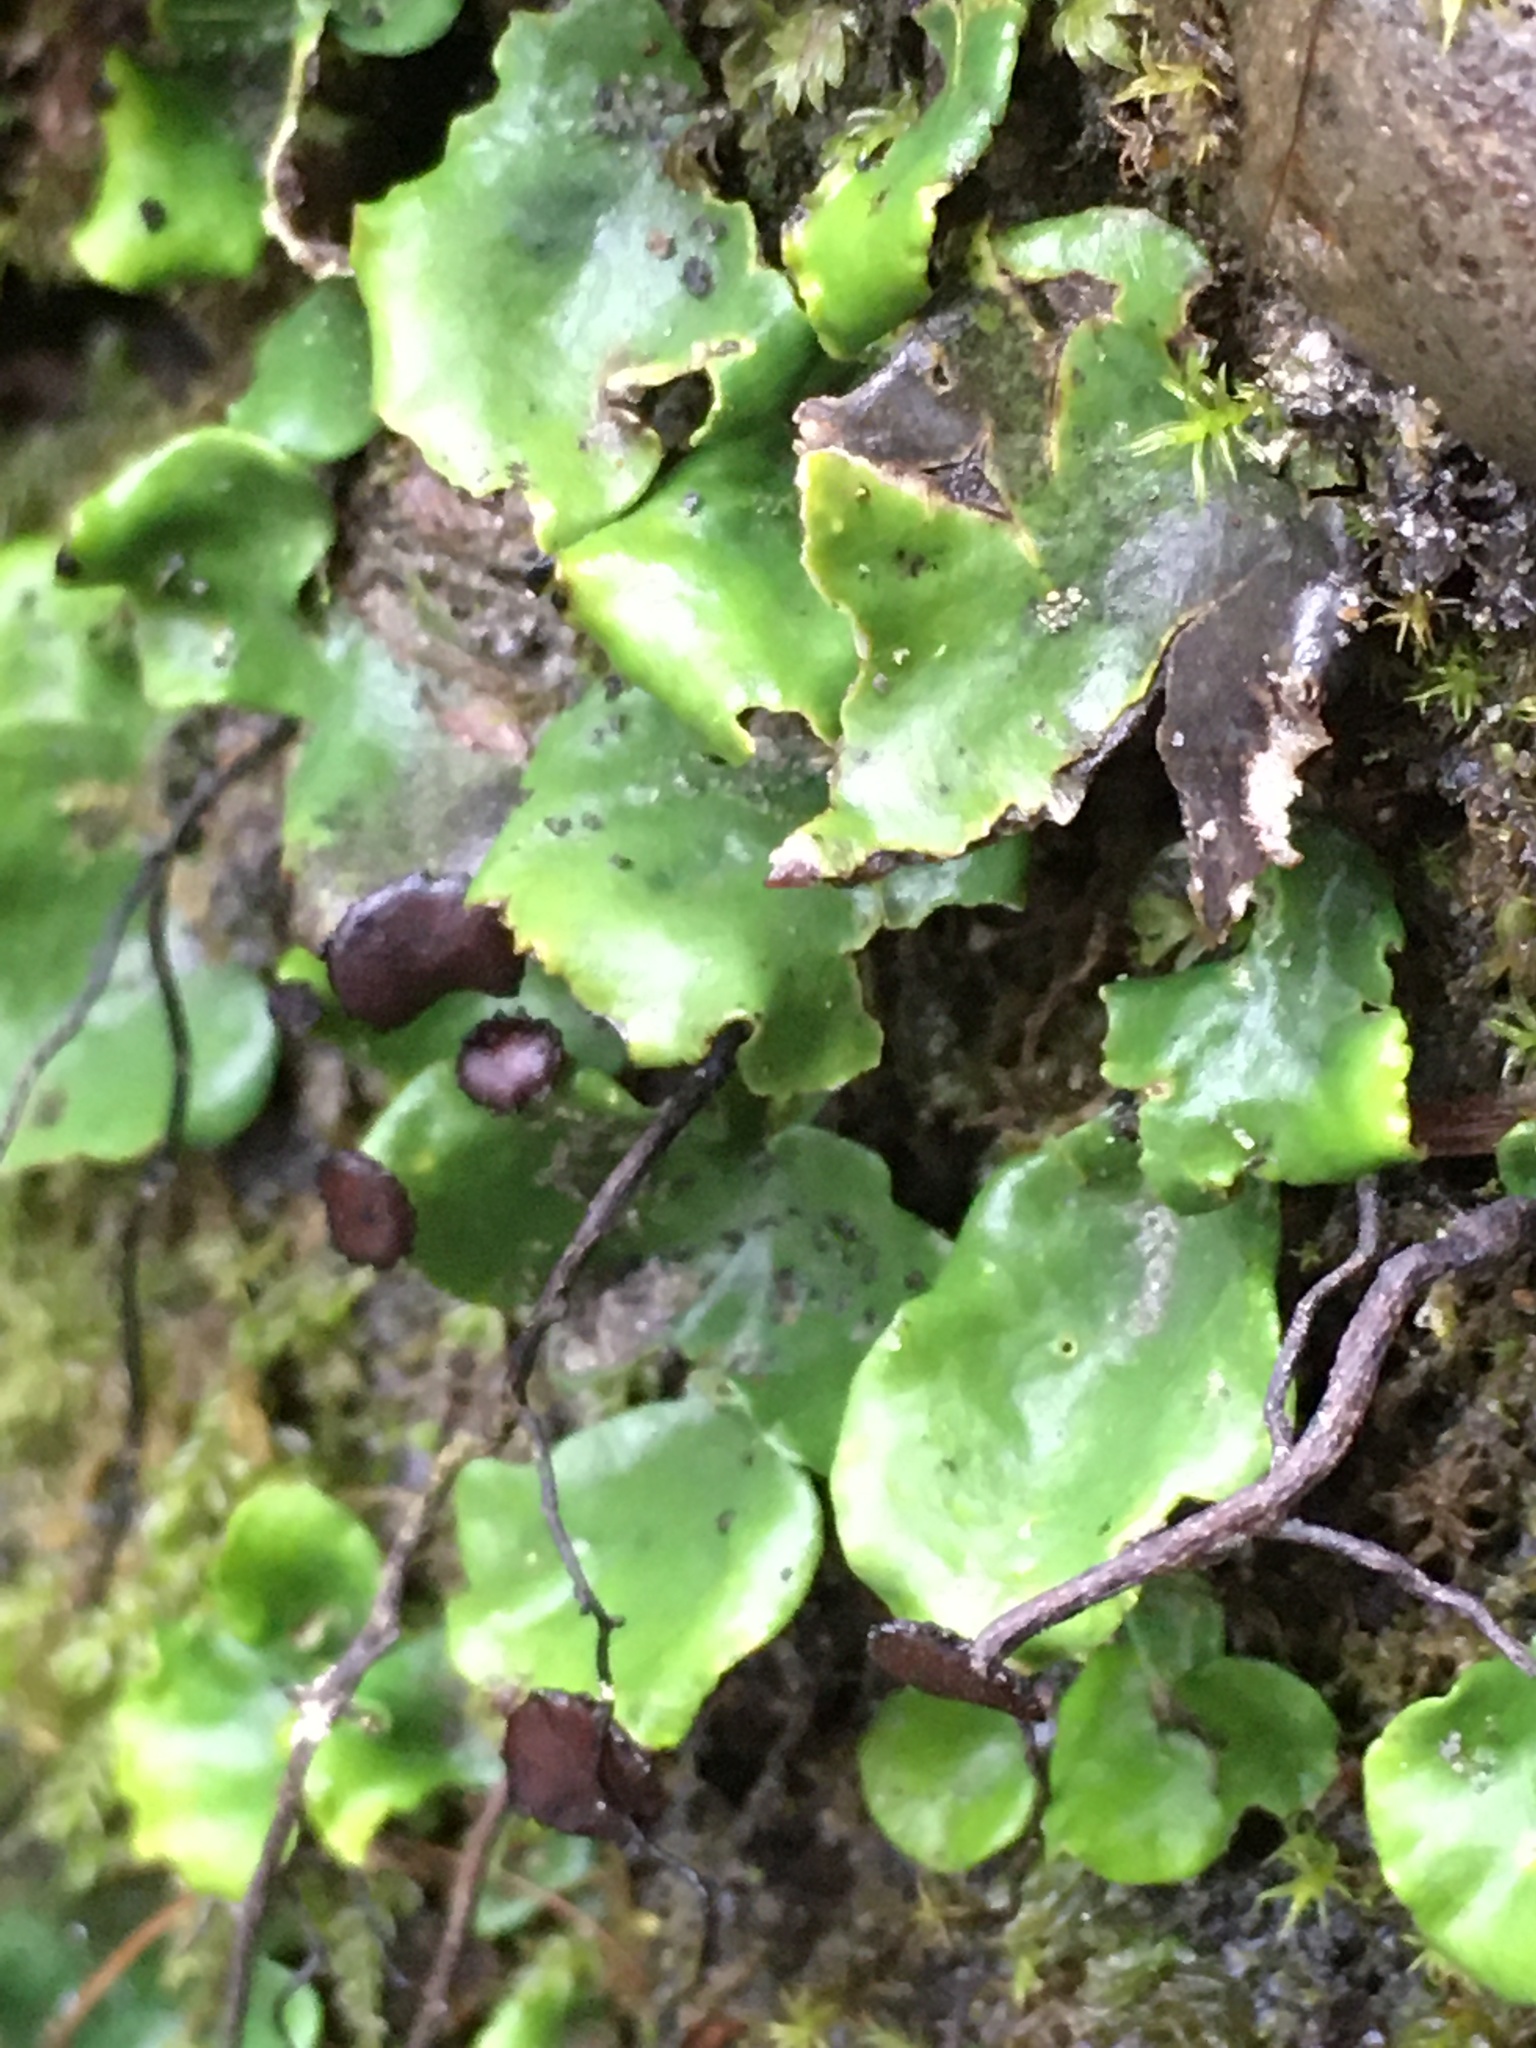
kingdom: Fungi
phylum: Ascomycota
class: Lecanoromycetes
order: Peltigerales
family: Peltigeraceae
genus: Peltigera
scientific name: Peltigera venosa
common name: Pixie gowns lichen
